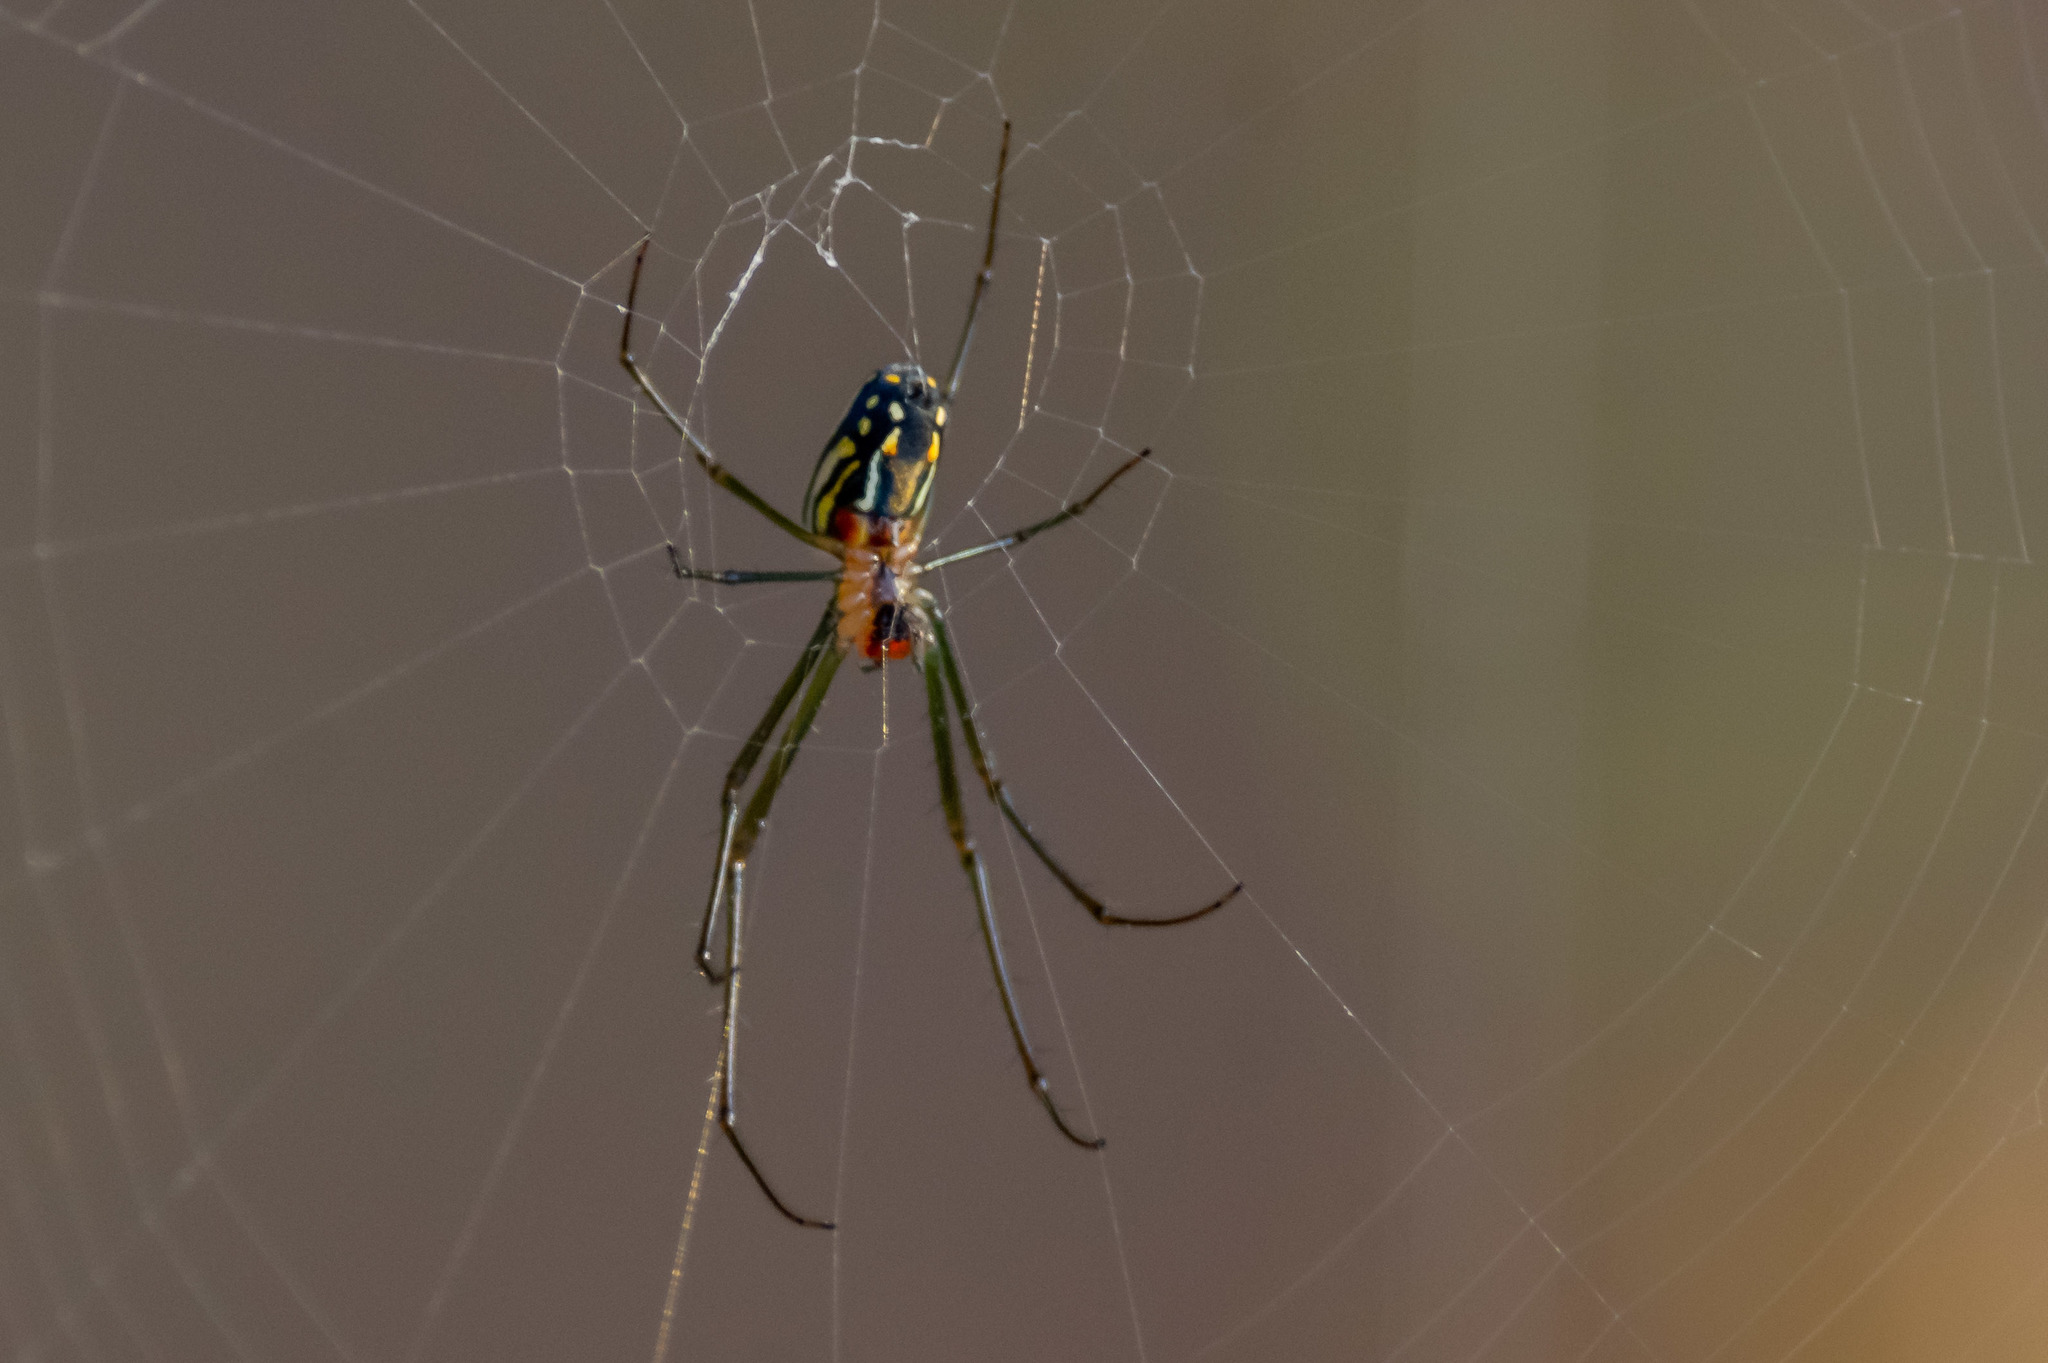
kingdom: Animalia
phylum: Arthropoda
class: Arachnida
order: Araneae
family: Tetragnathidae
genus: Leucauge
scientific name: Leucauge argyra
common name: Longjawed orb weavers
